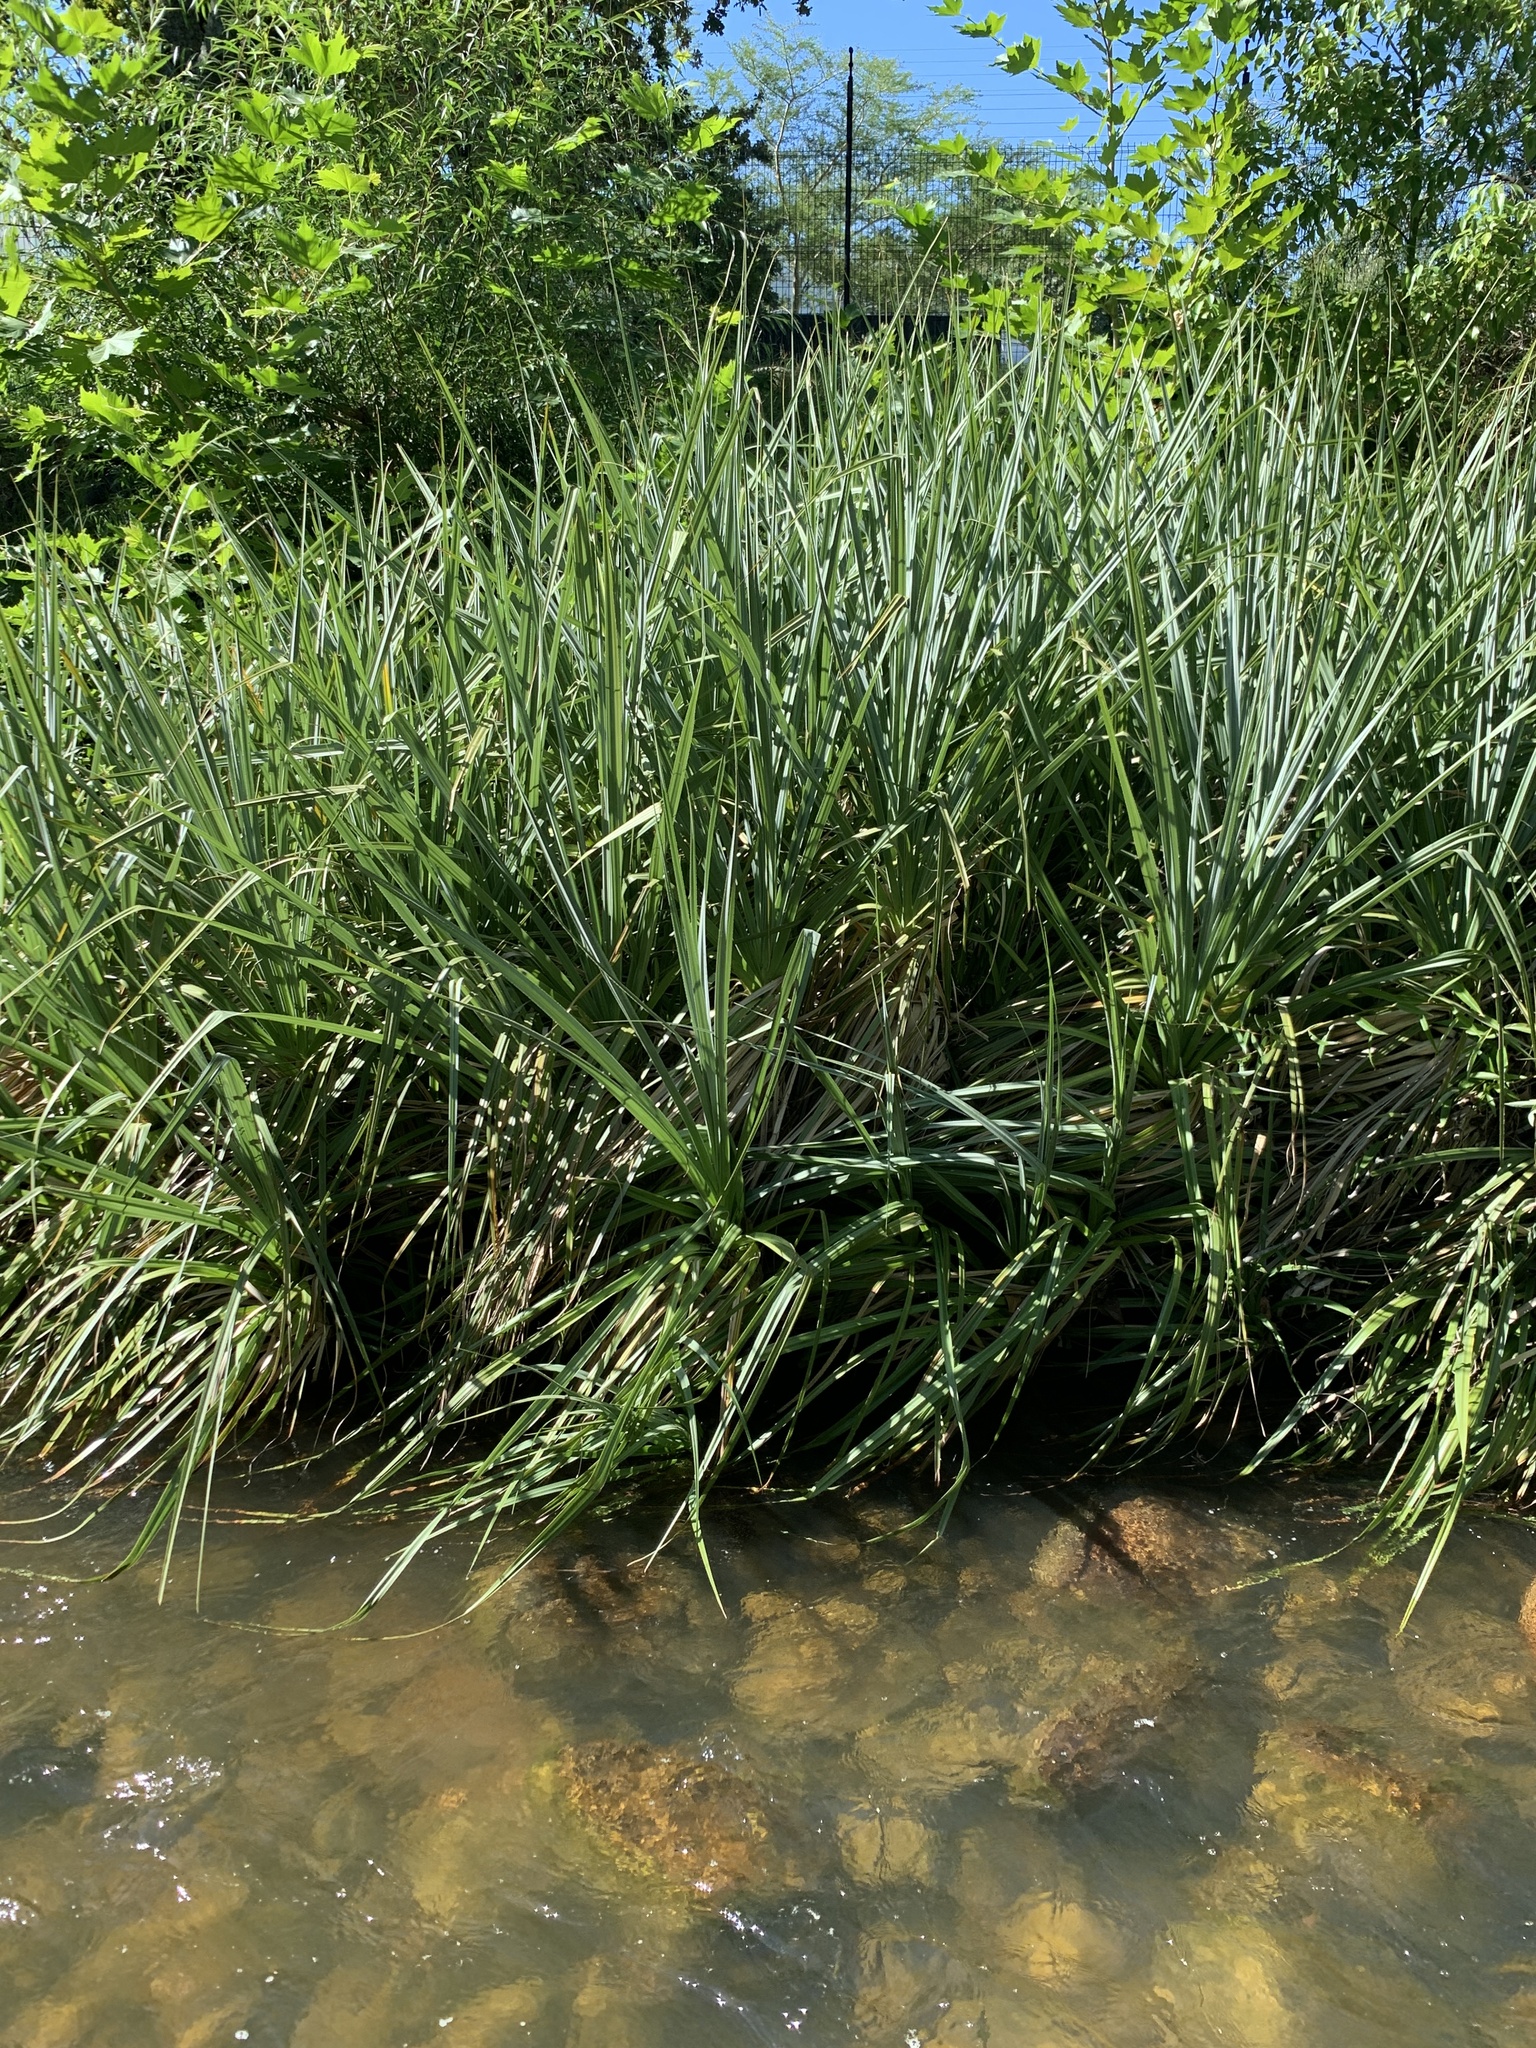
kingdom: Plantae
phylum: Tracheophyta
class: Liliopsida
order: Poales
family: Thurniaceae
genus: Prionium
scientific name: Prionium serratum
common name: Palmiet
